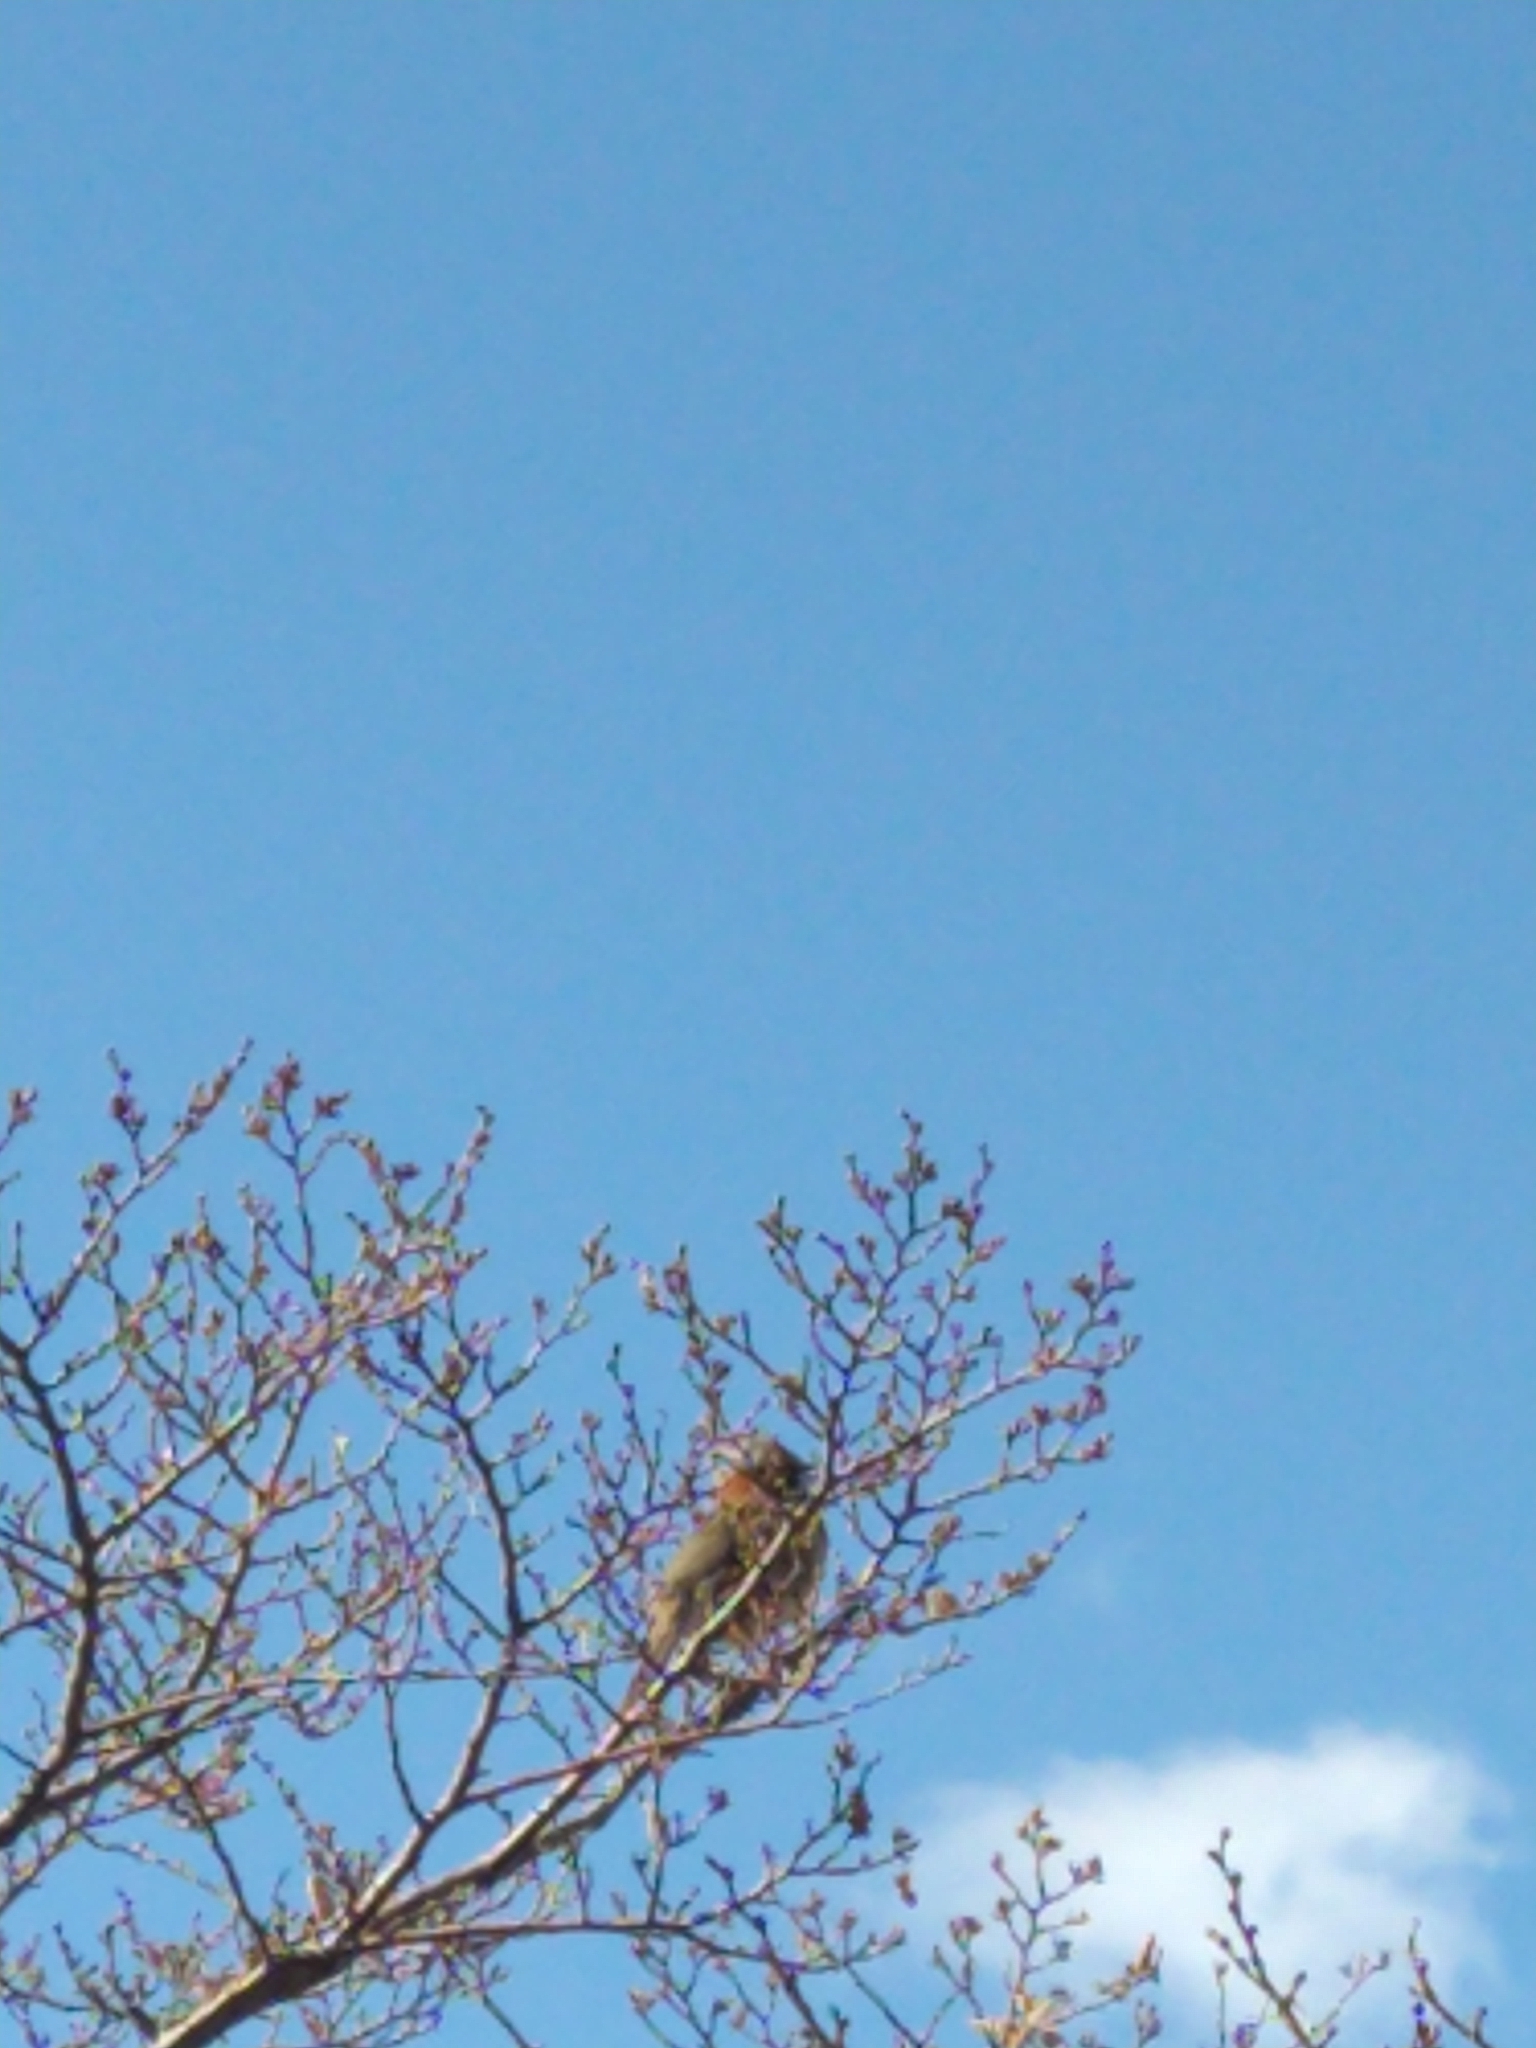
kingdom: Animalia
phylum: Chordata
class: Aves
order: Passeriformes
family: Passerellidae
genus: Zonotrichia
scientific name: Zonotrichia capensis
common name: Rufous-collared sparrow
